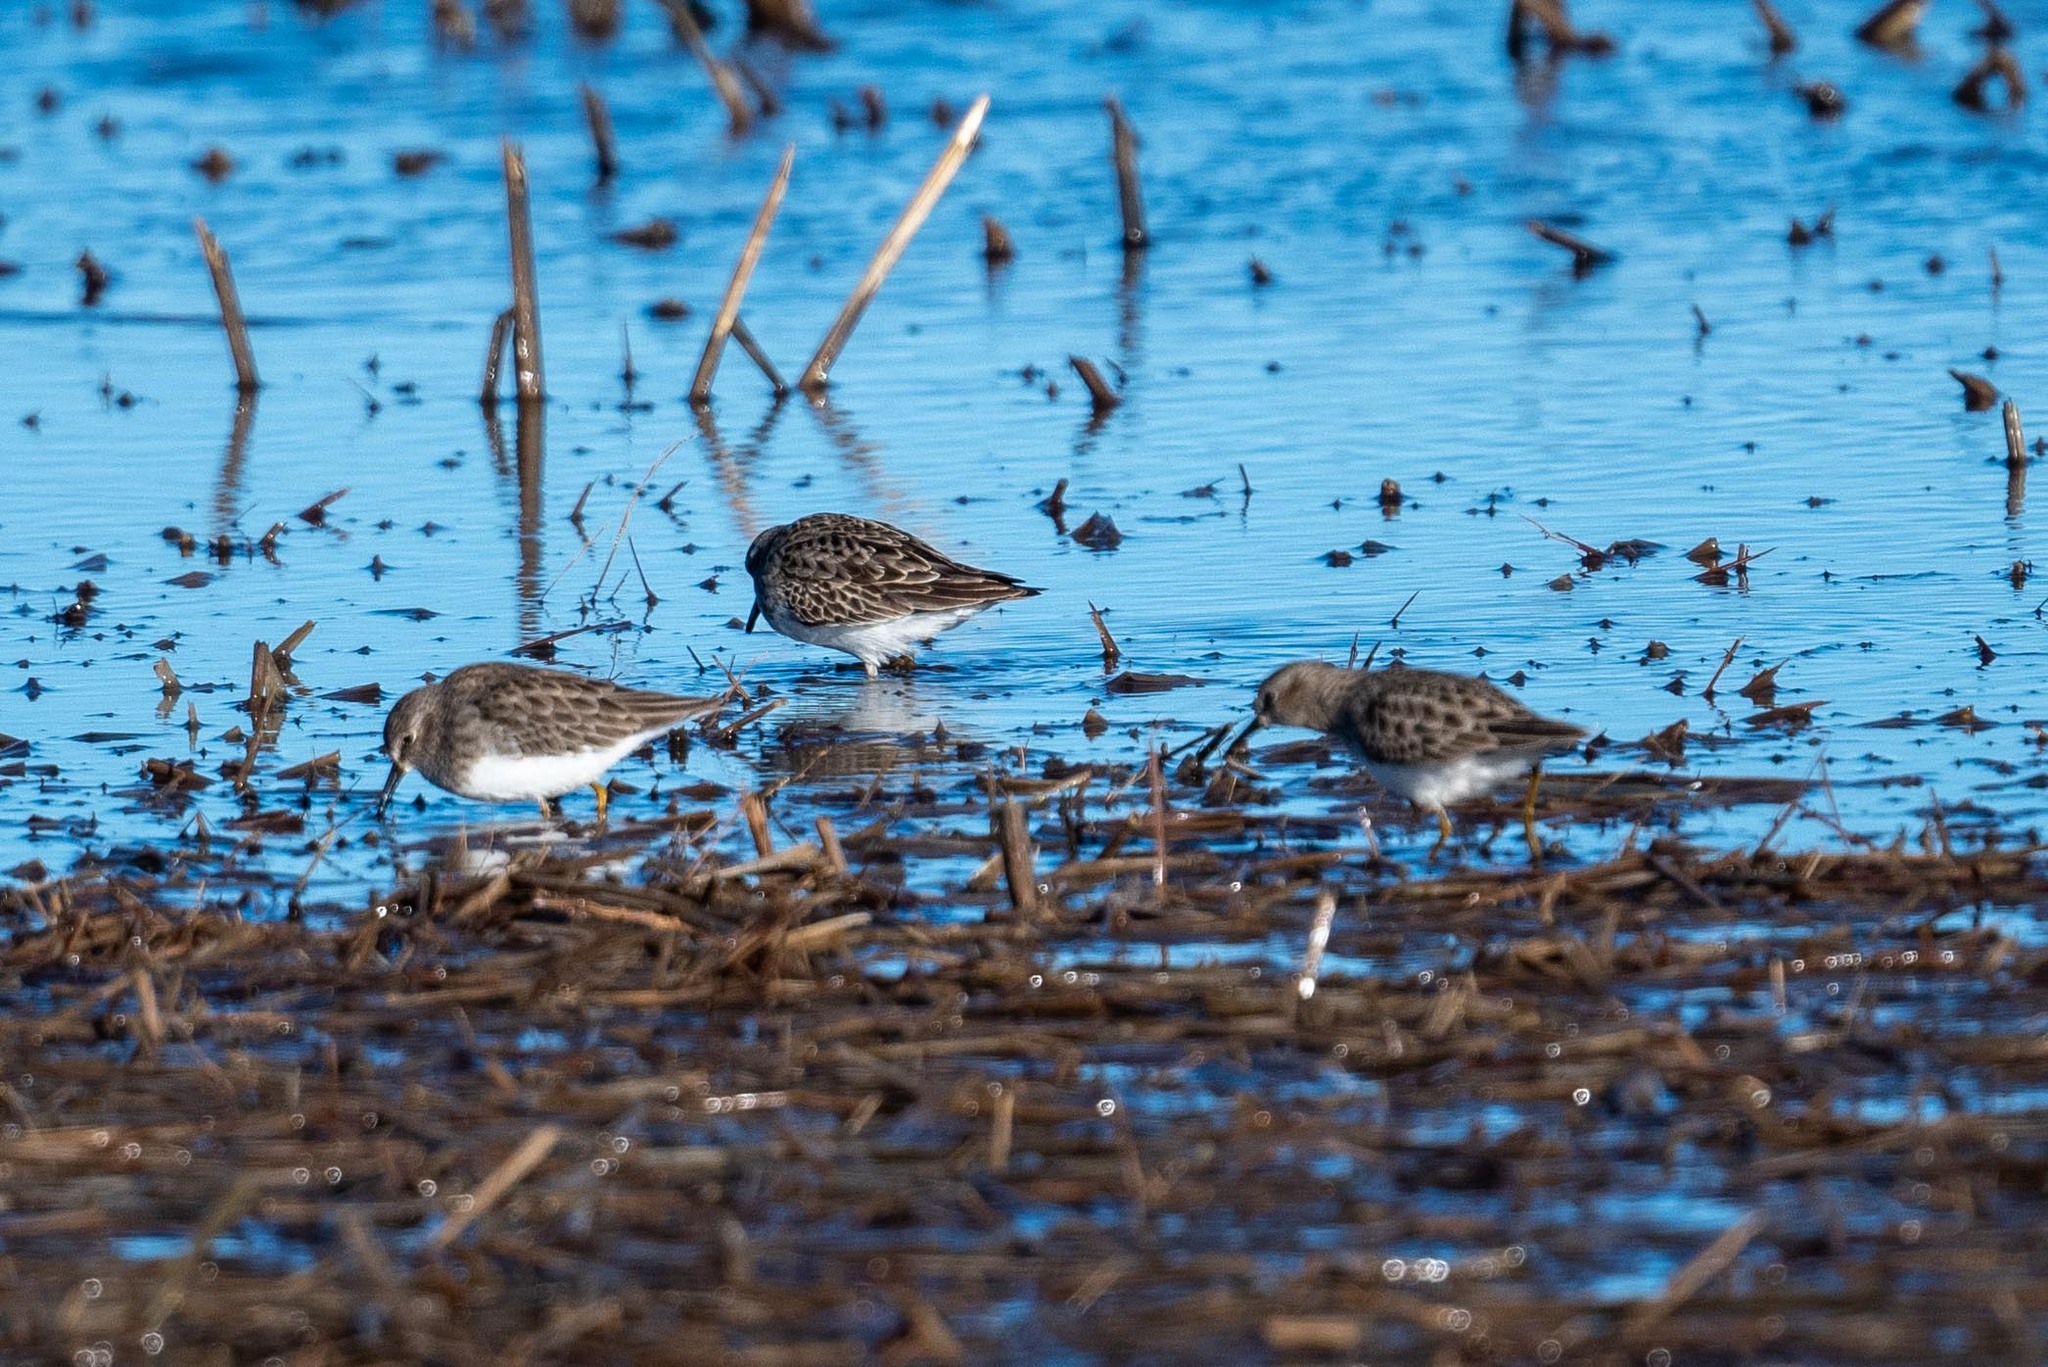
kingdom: Animalia
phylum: Chordata
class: Aves
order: Charadriiformes
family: Scolopacidae
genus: Calidris
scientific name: Calidris minutilla
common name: Least sandpiper
